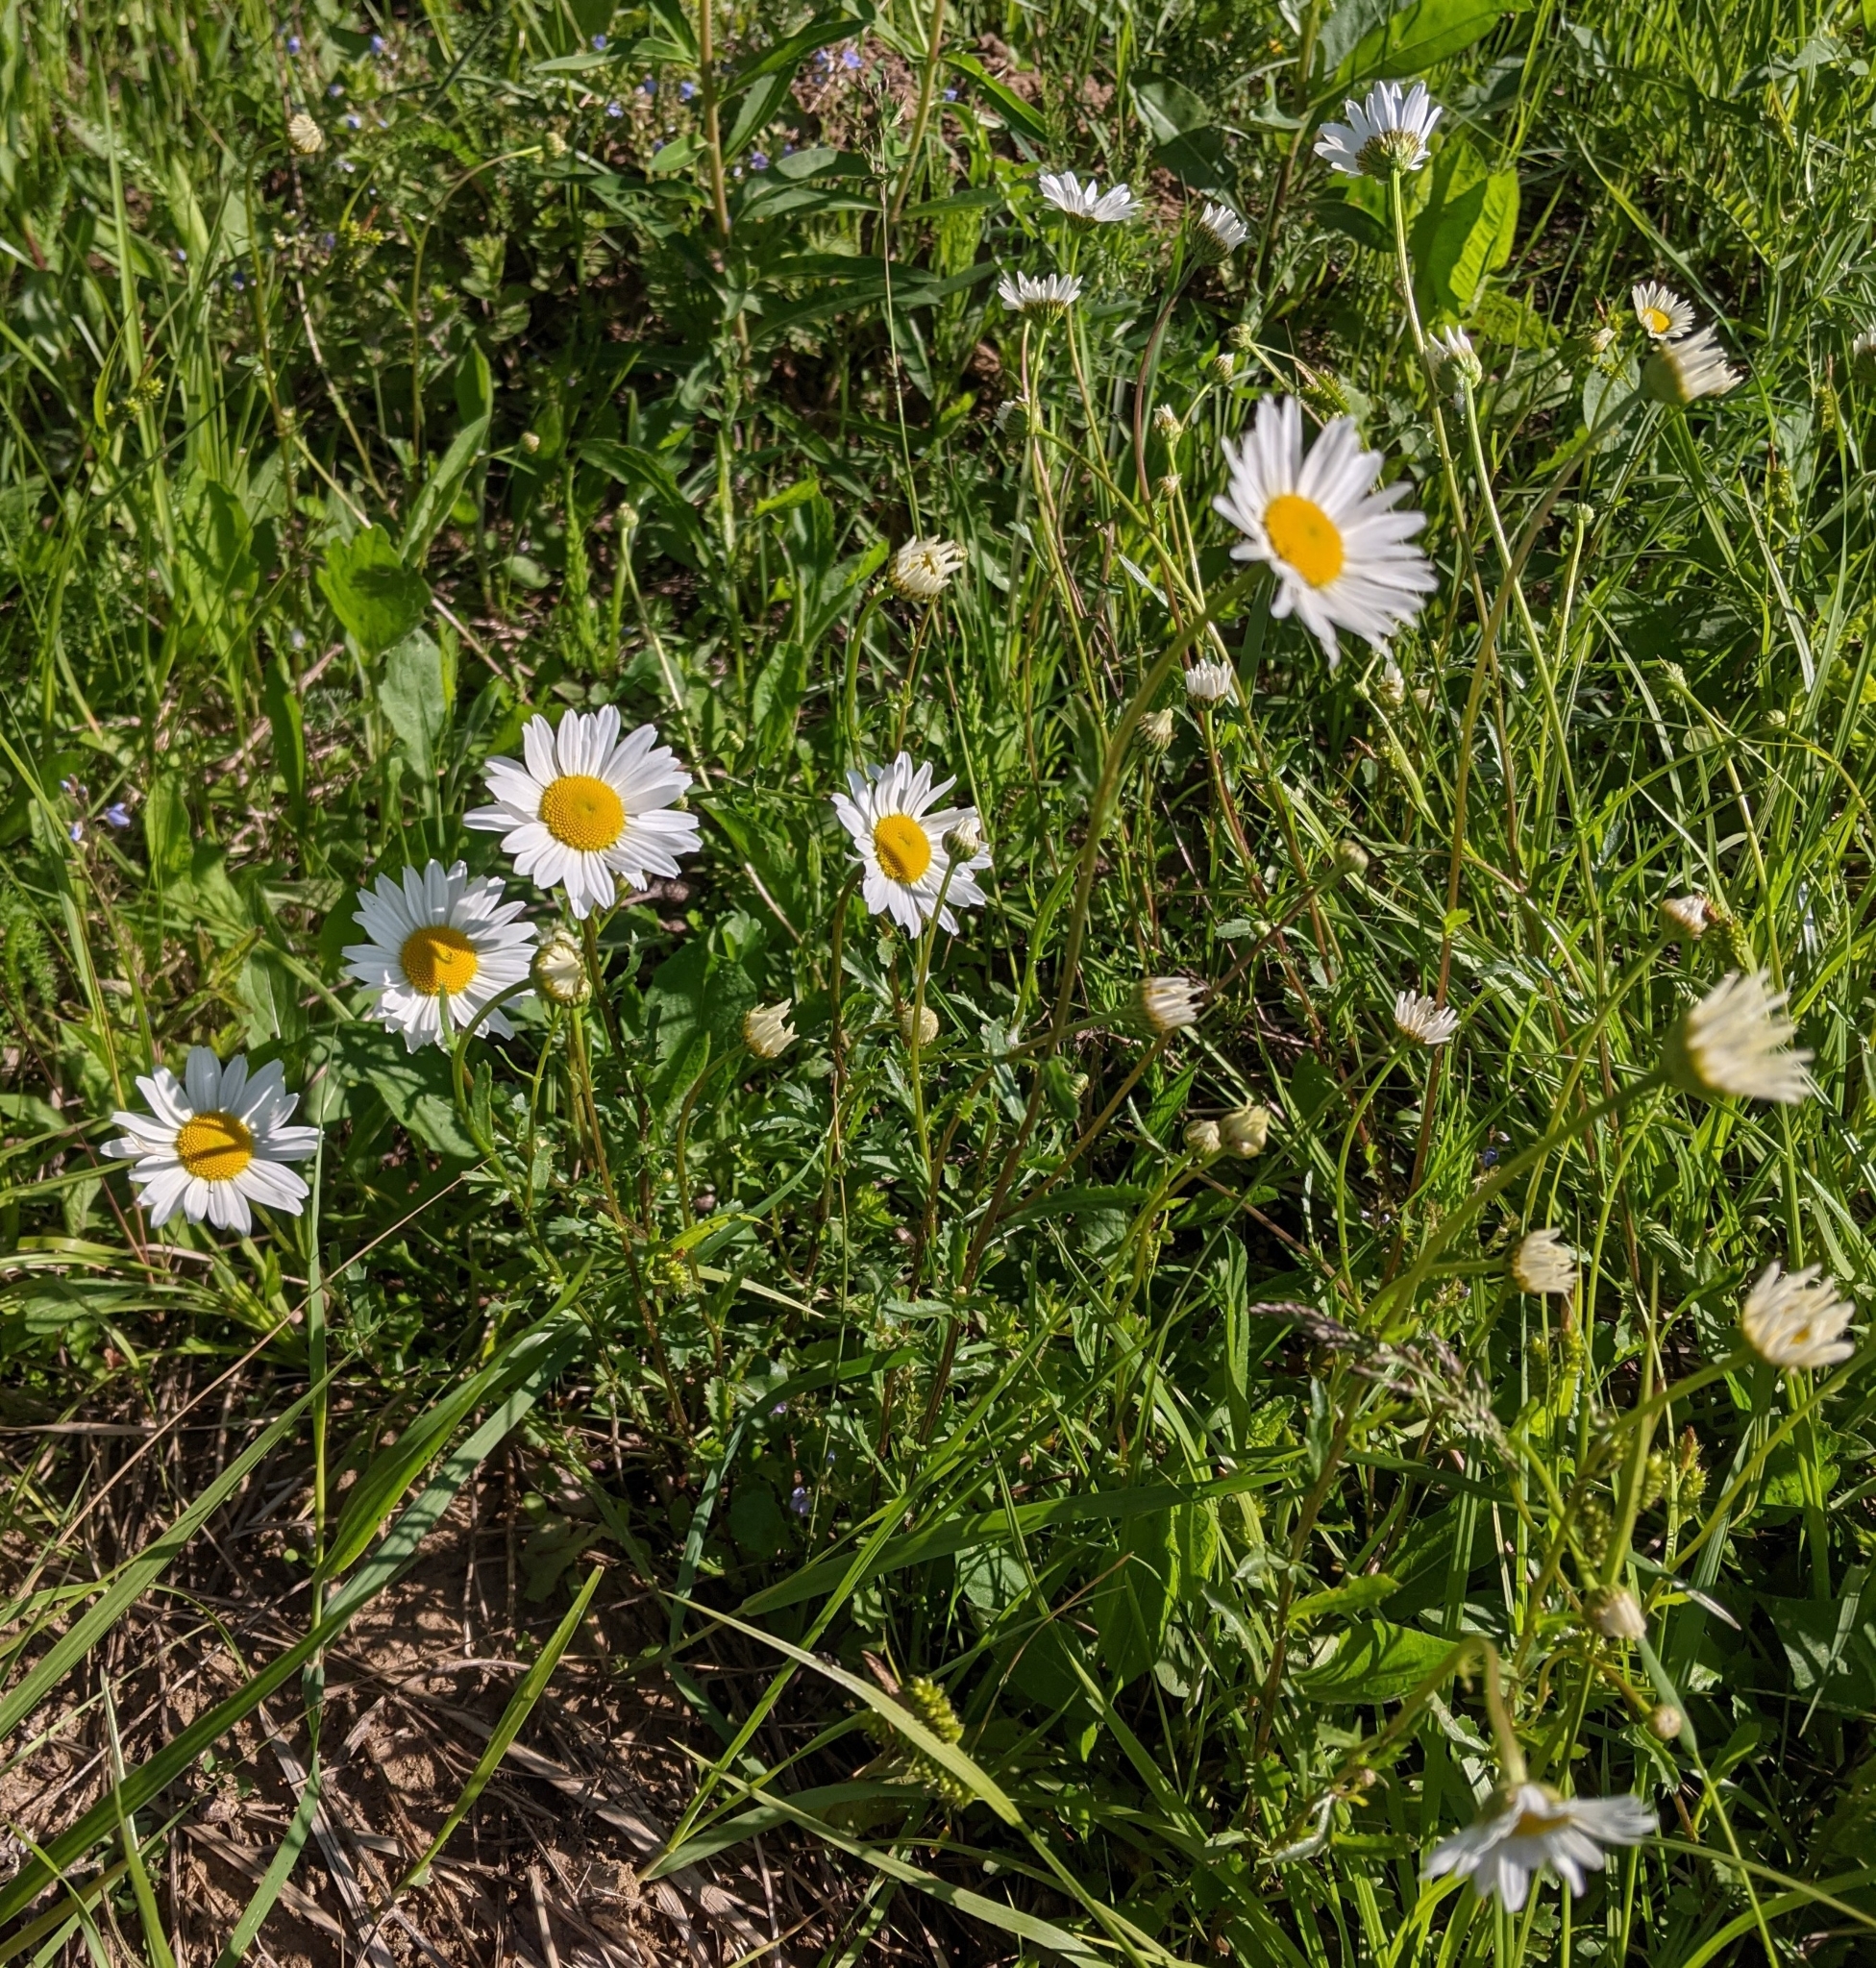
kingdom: Plantae
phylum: Tracheophyta
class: Magnoliopsida
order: Asterales
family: Asteraceae
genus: Leucanthemum
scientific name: Leucanthemum vulgare
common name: Oxeye daisy
